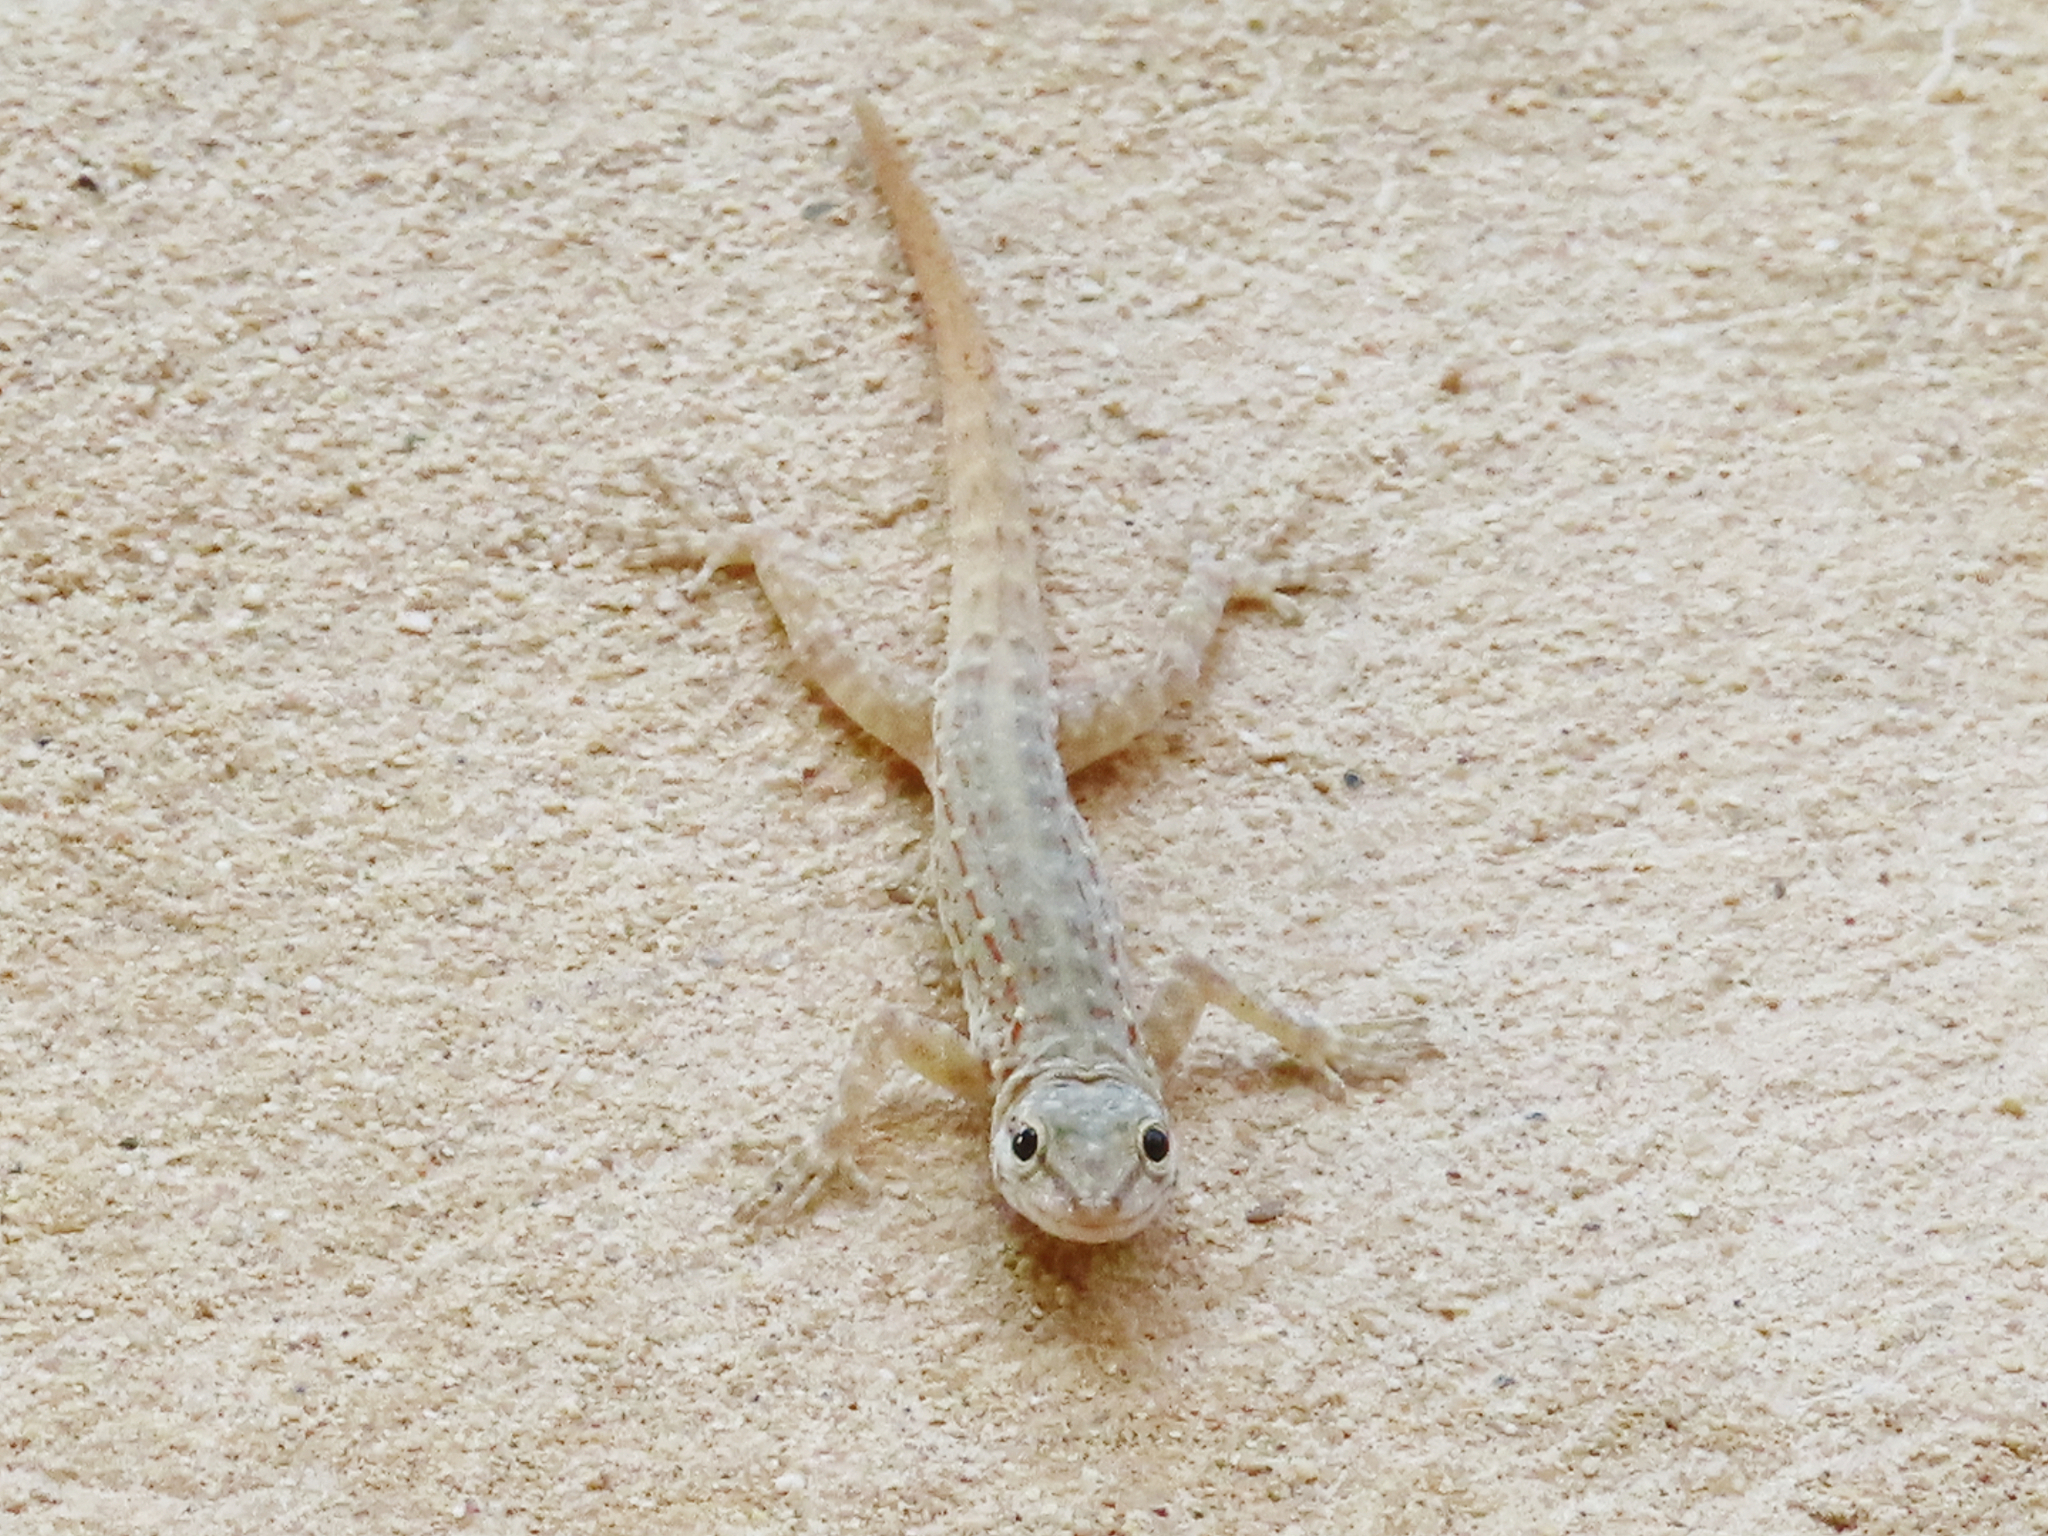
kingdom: Animalia
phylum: Chordata
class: Squamata
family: Sphaerodactylidae
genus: Pristurus
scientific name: Pristurus rupestris
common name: Blanford’s semaphore gecko
